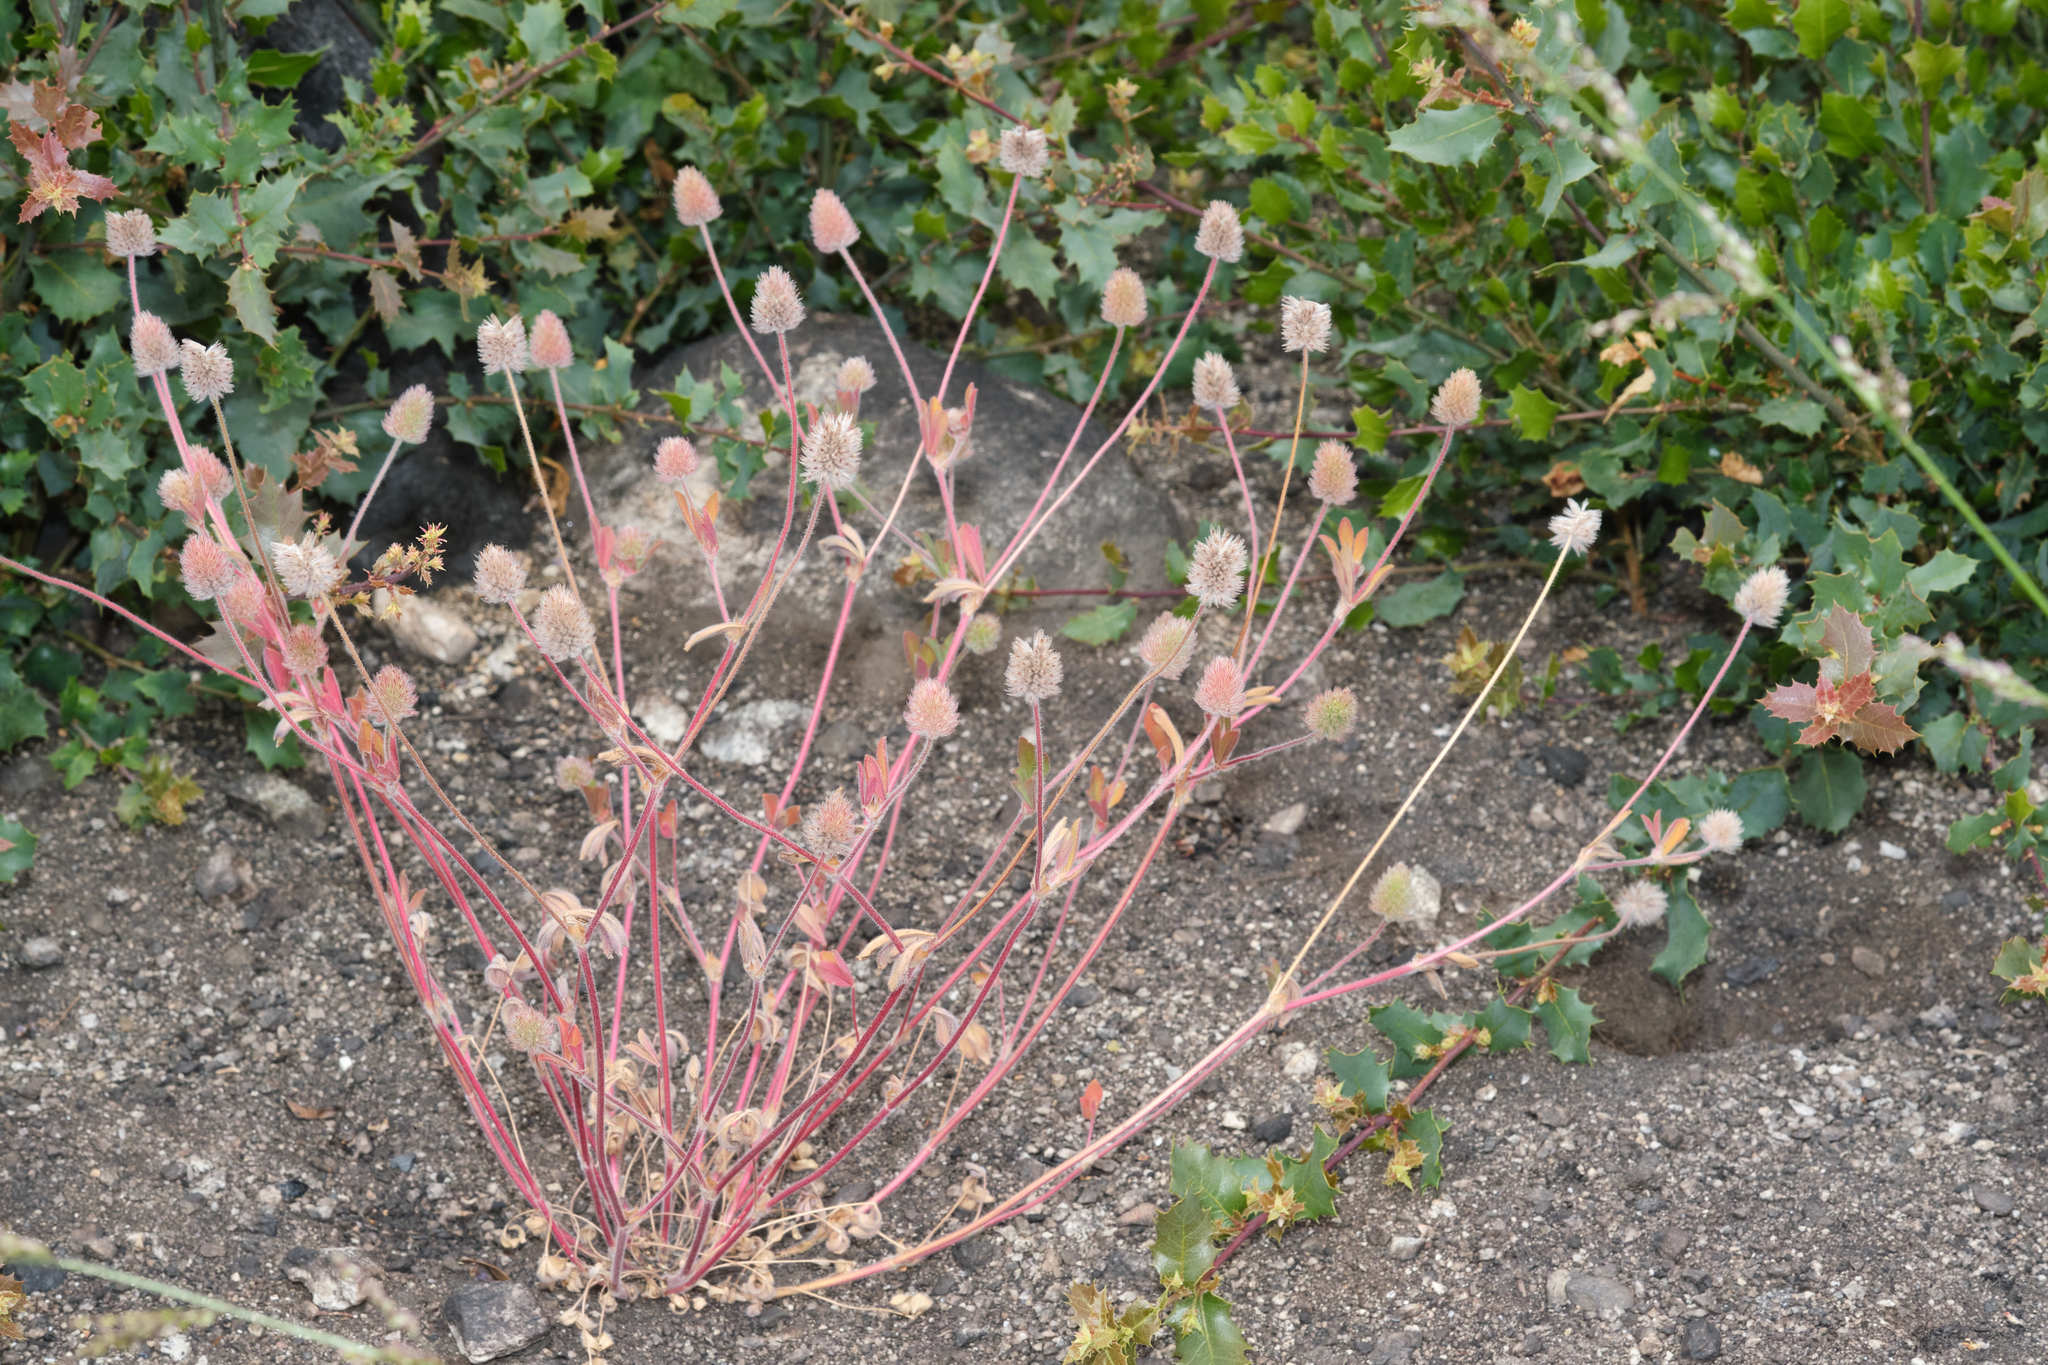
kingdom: Plantae
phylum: Tracheophyta
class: Magnoliopsida
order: Fabales
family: Fabaceae
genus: Trifolium
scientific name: Trifolium albopurpureum
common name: Rancheria clover
